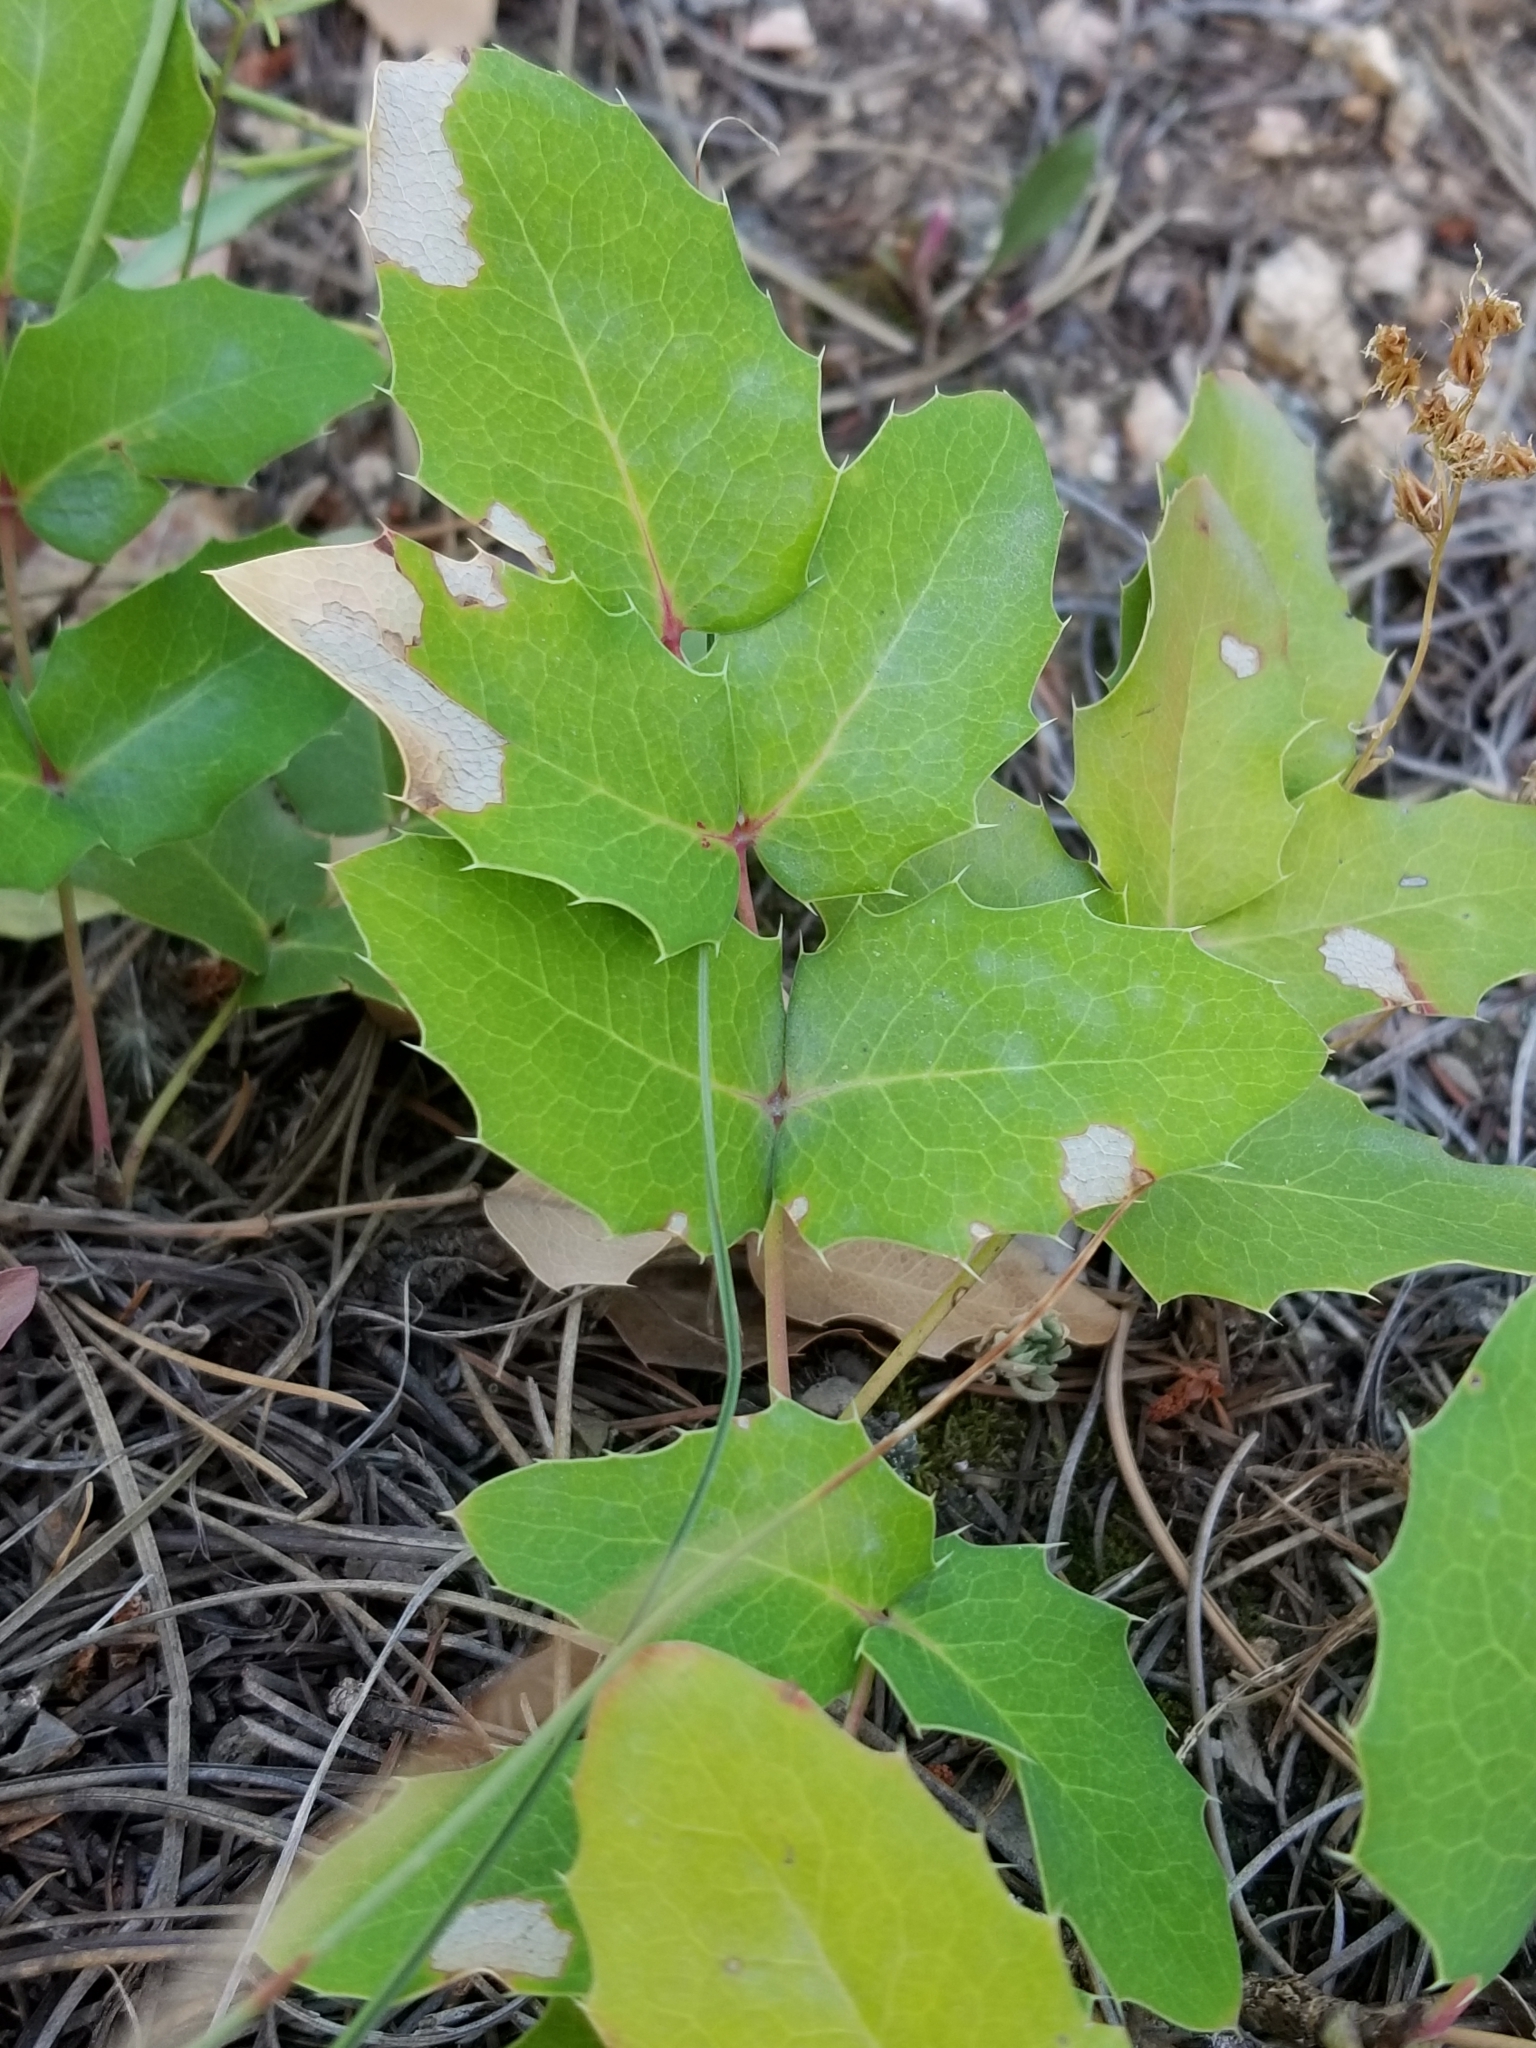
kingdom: Plantae
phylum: Tracheophyta
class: Magnoliopsida
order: Ranunculales
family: Berberidaceae
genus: Mahonia
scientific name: Mahonia repens
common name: Creeping oregon-grape
